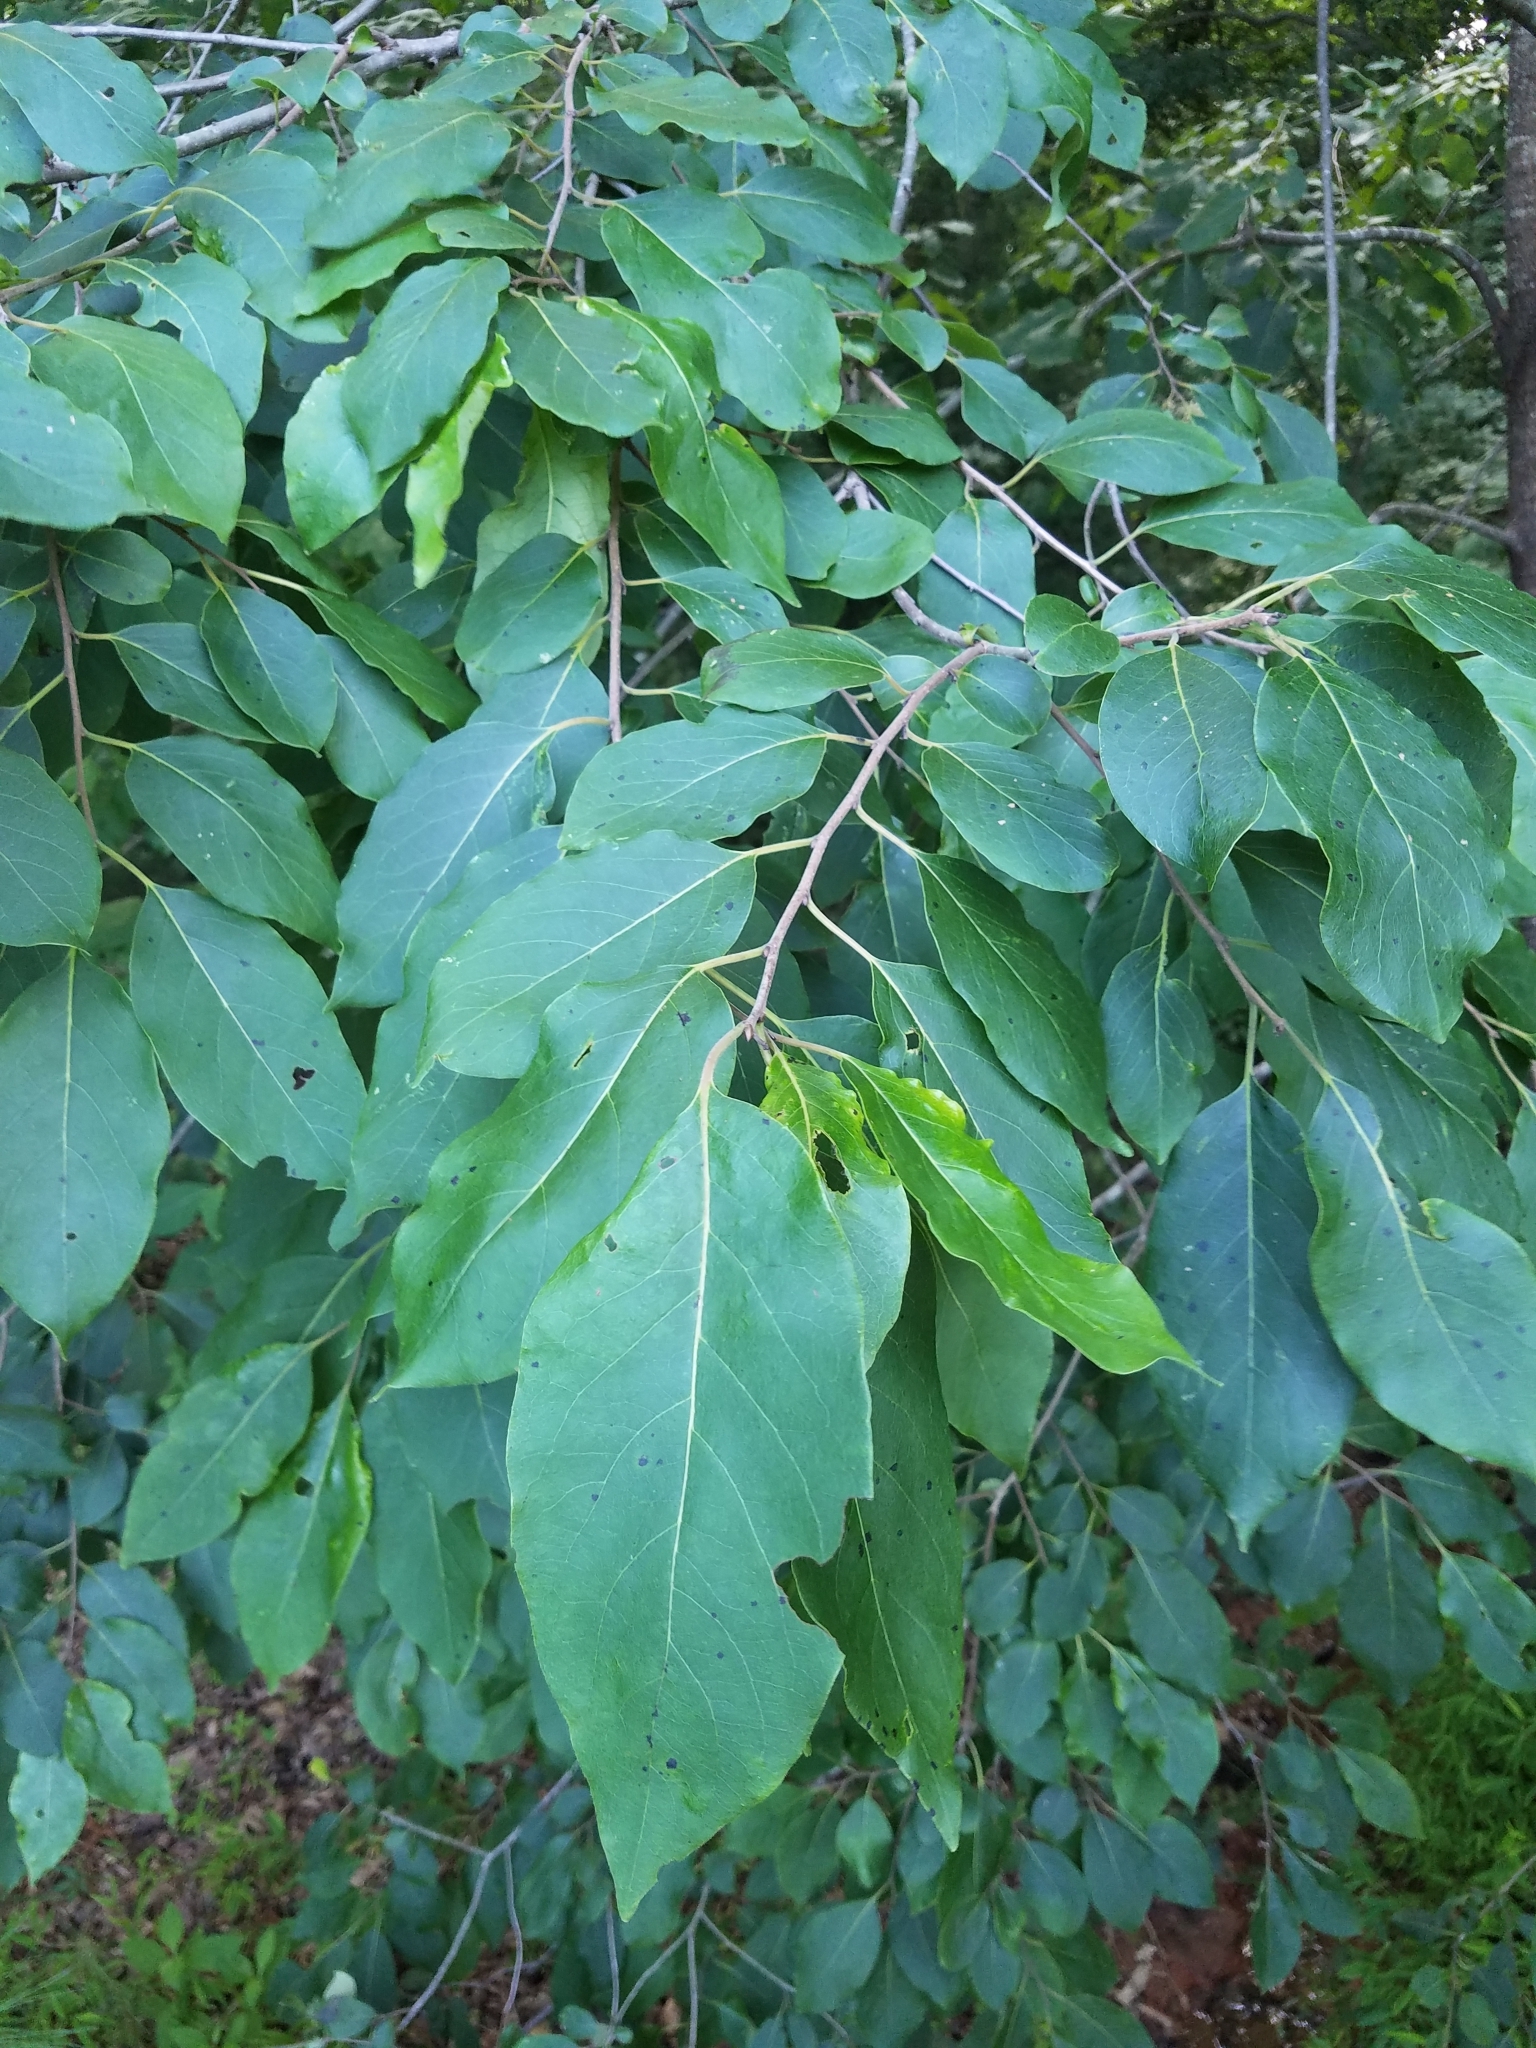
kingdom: Plantae
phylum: Tracheophyta
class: Magnoliopsida
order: Ericales
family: Ebenaceae
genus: Diospyros
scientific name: Diospyros virginiana
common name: Persimmon
